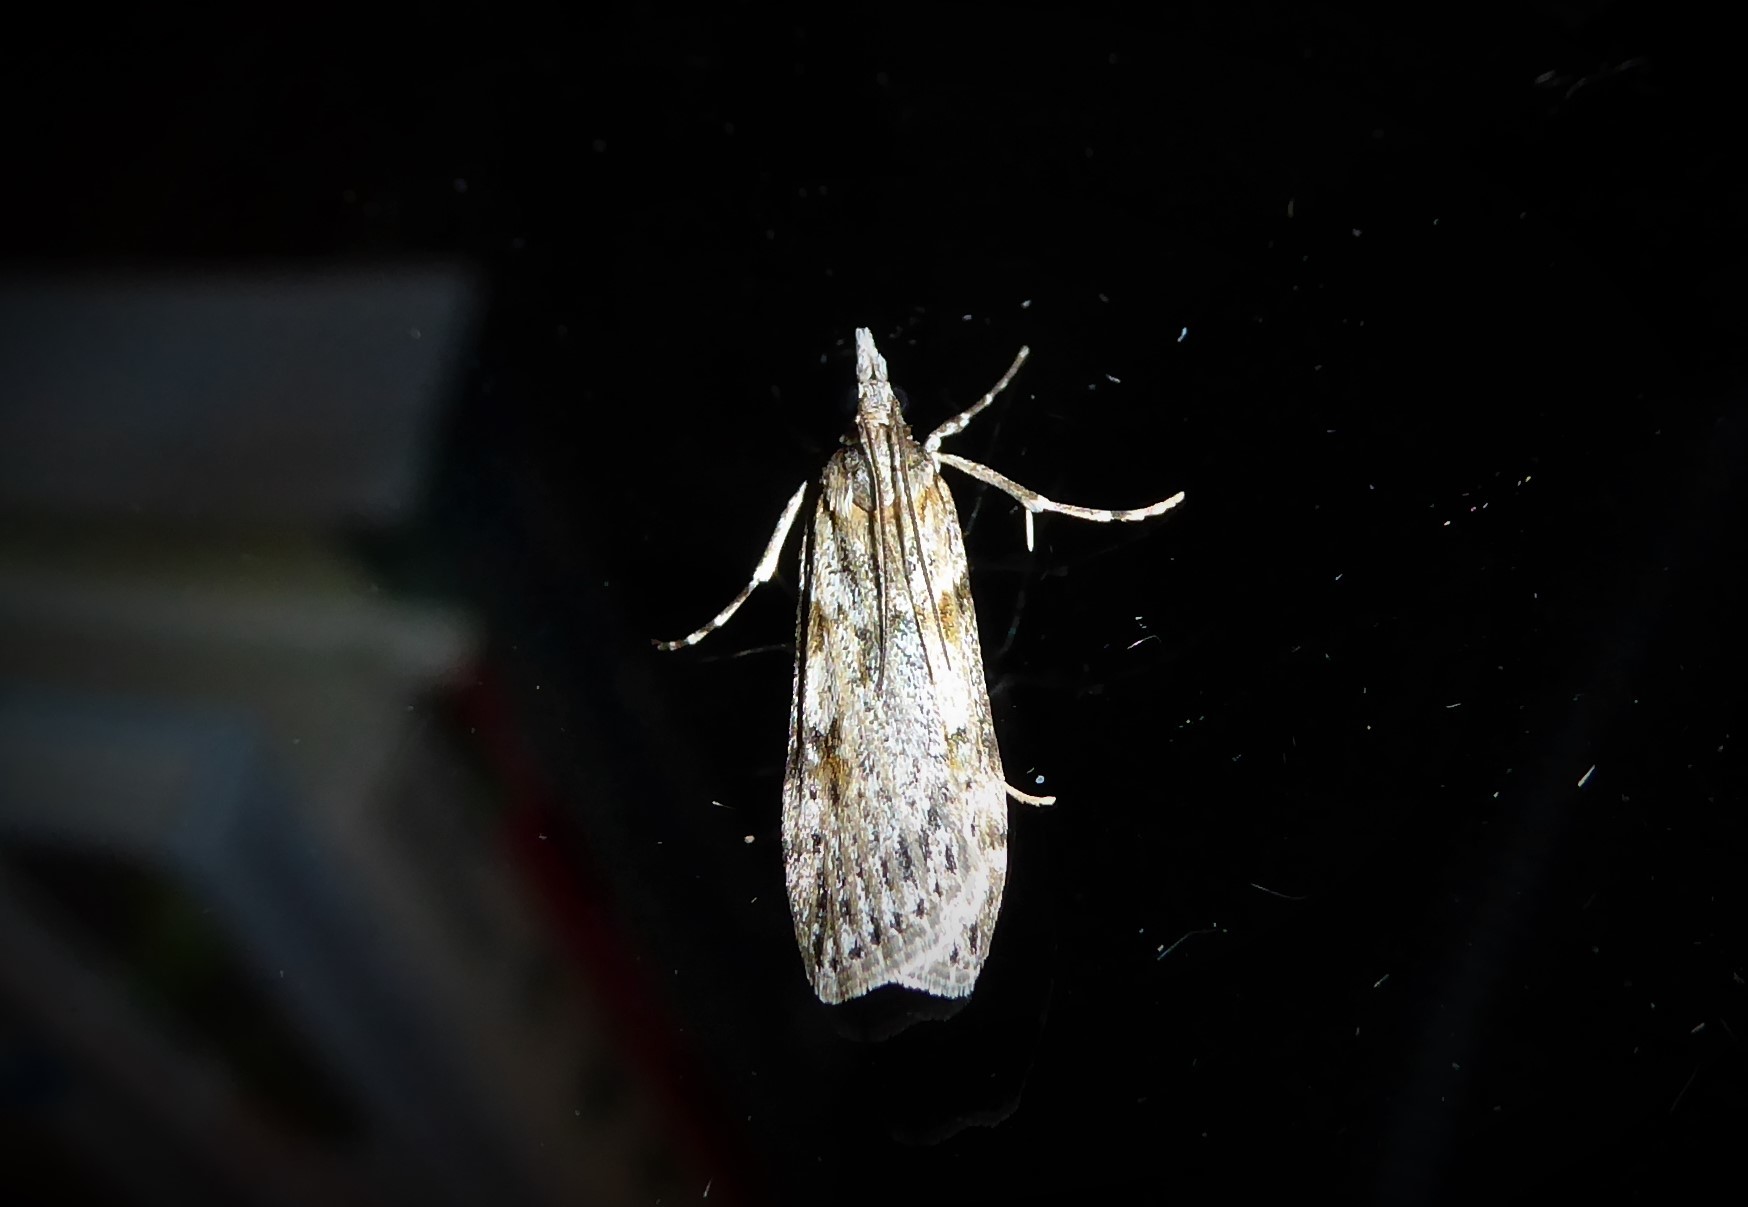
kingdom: Animalia
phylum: Arthropoda
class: Insecta
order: Lepidoptera
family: Crambidae
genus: Scoparia
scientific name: Scoparia halopis
